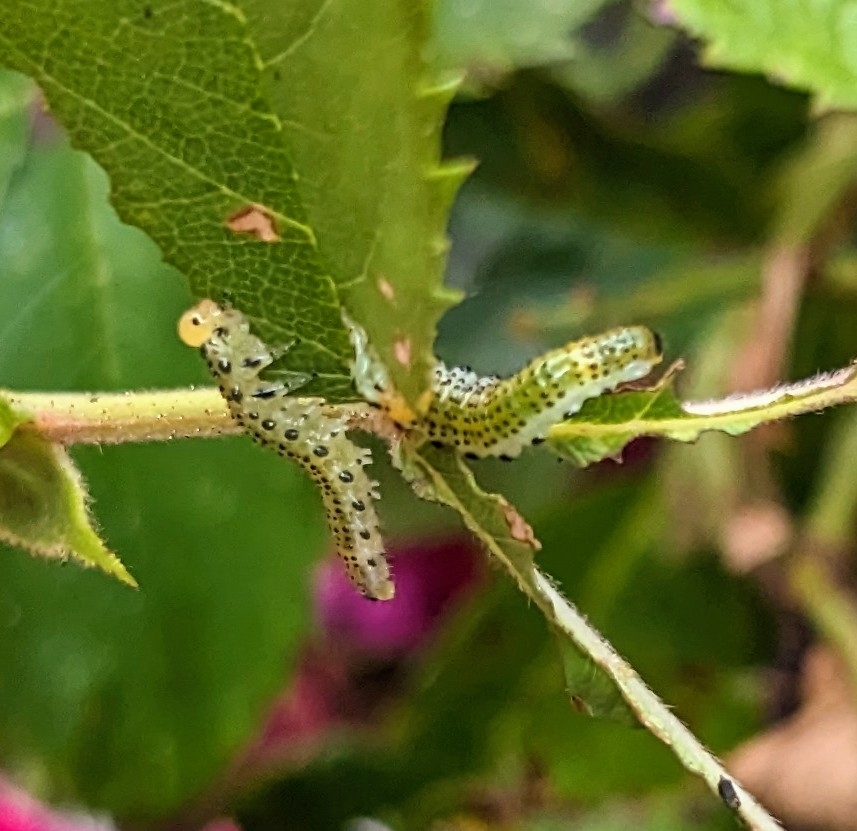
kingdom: Animalia
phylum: Arthropoda
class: Insecta
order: Hymenoptera
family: Argidae
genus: Arge
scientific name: Arge pagana
